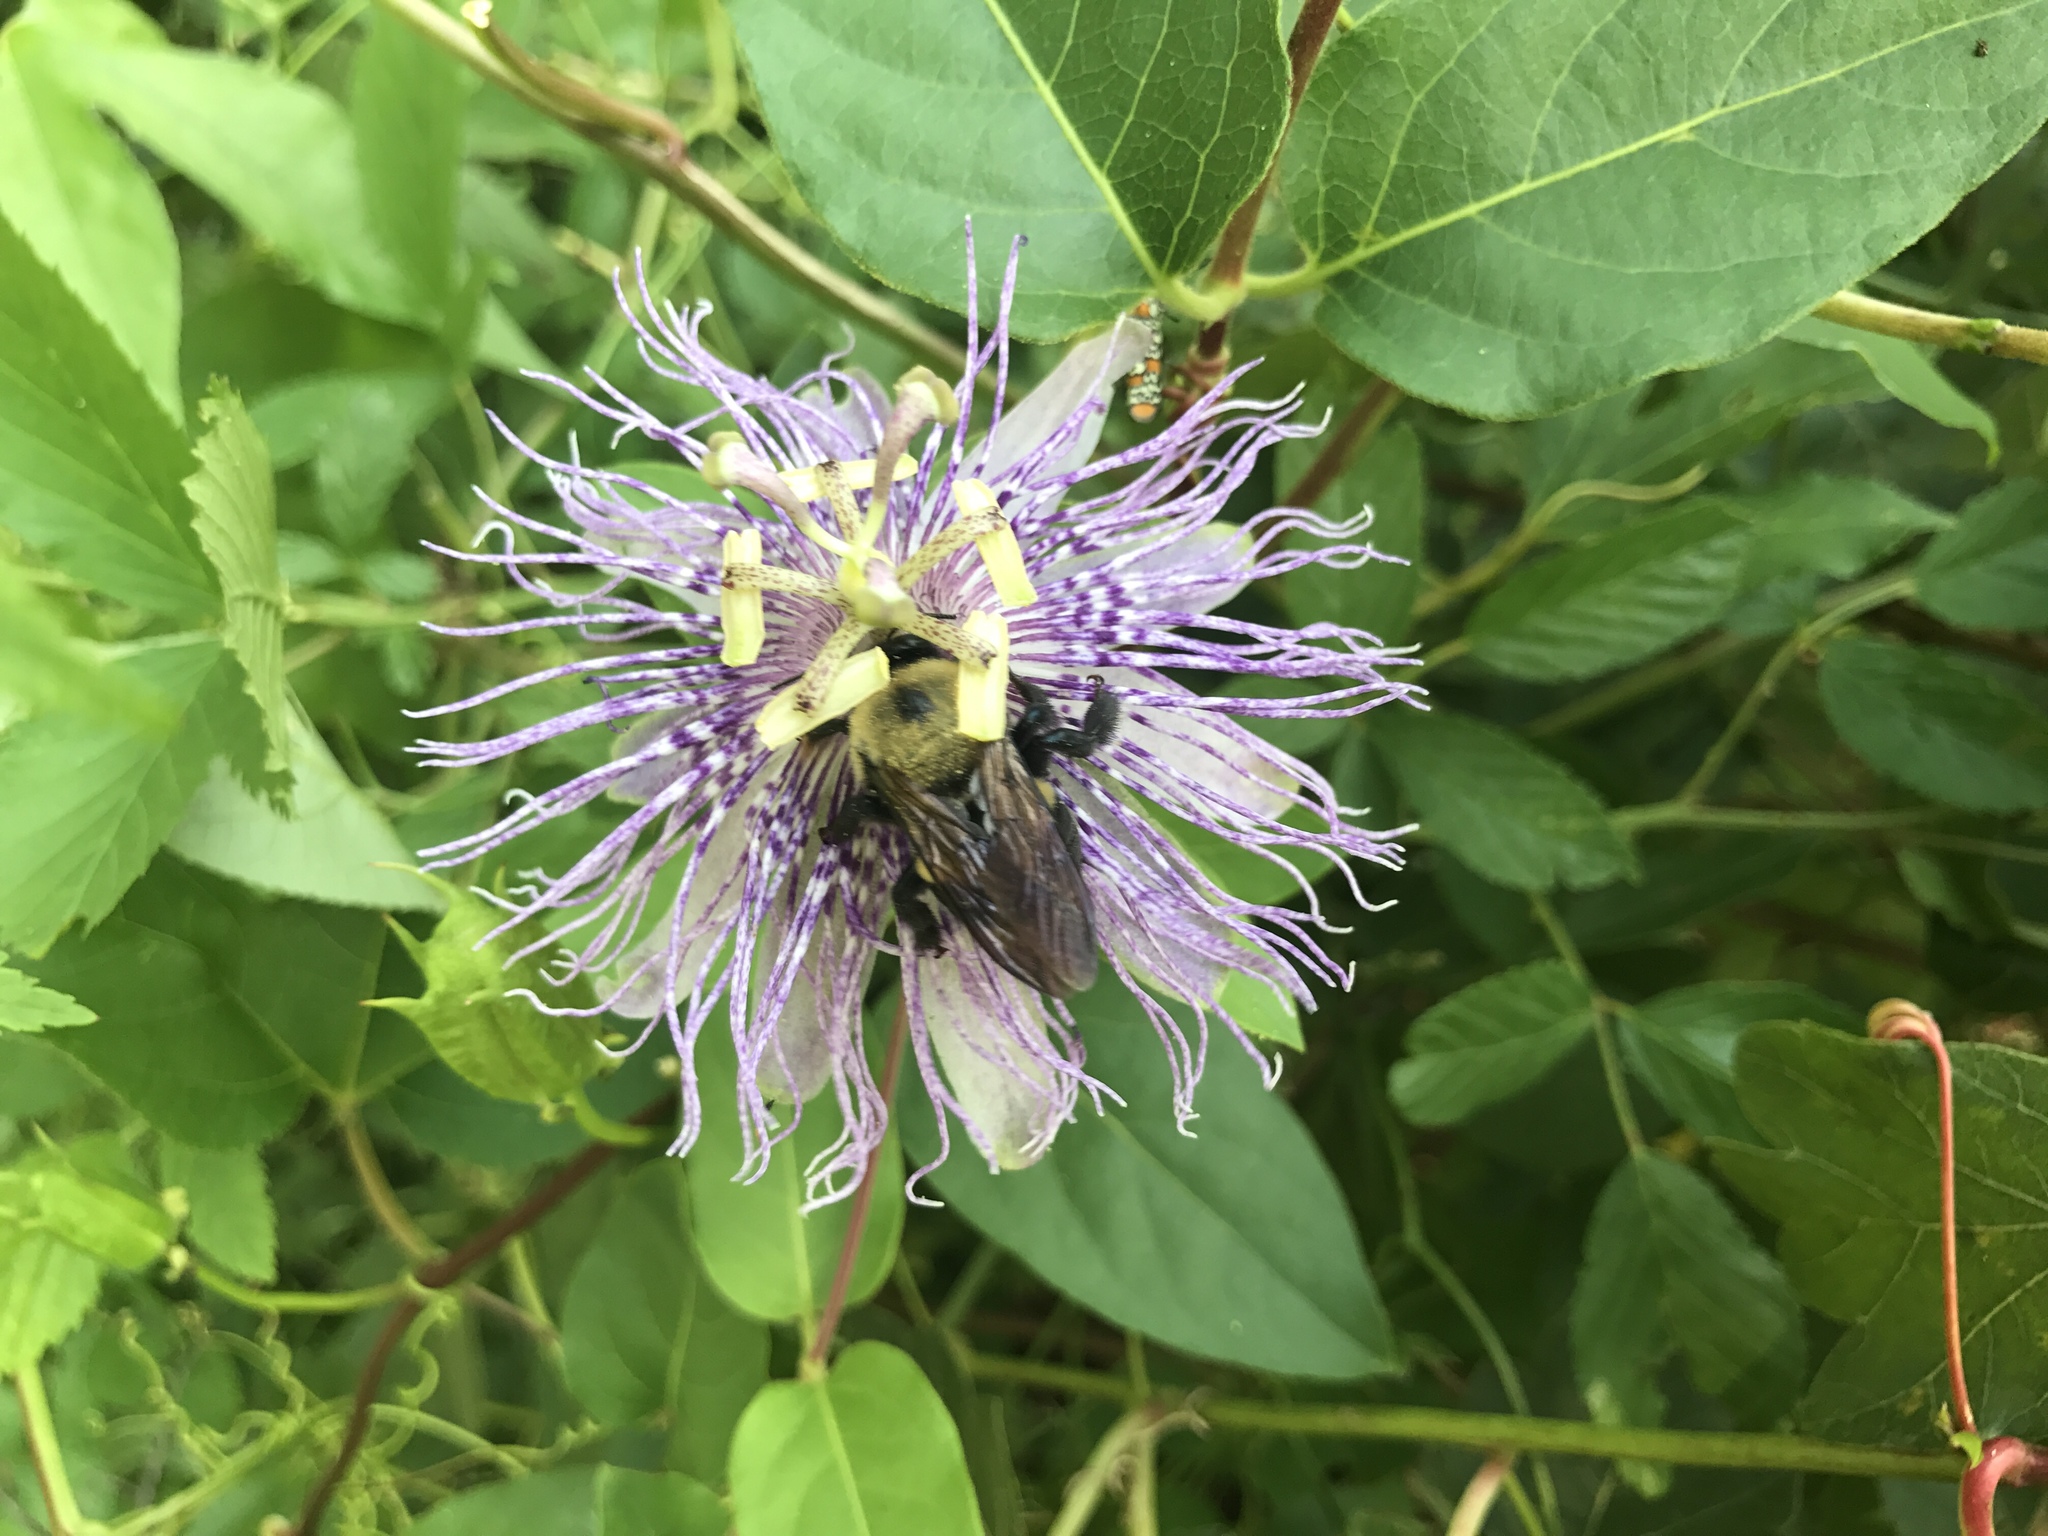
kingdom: Animalia
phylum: Arthropoda
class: Insecta
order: Hymenoptera
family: Apidae
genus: Xylocopa
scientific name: Xylocopa virginica
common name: Carpenter bee
